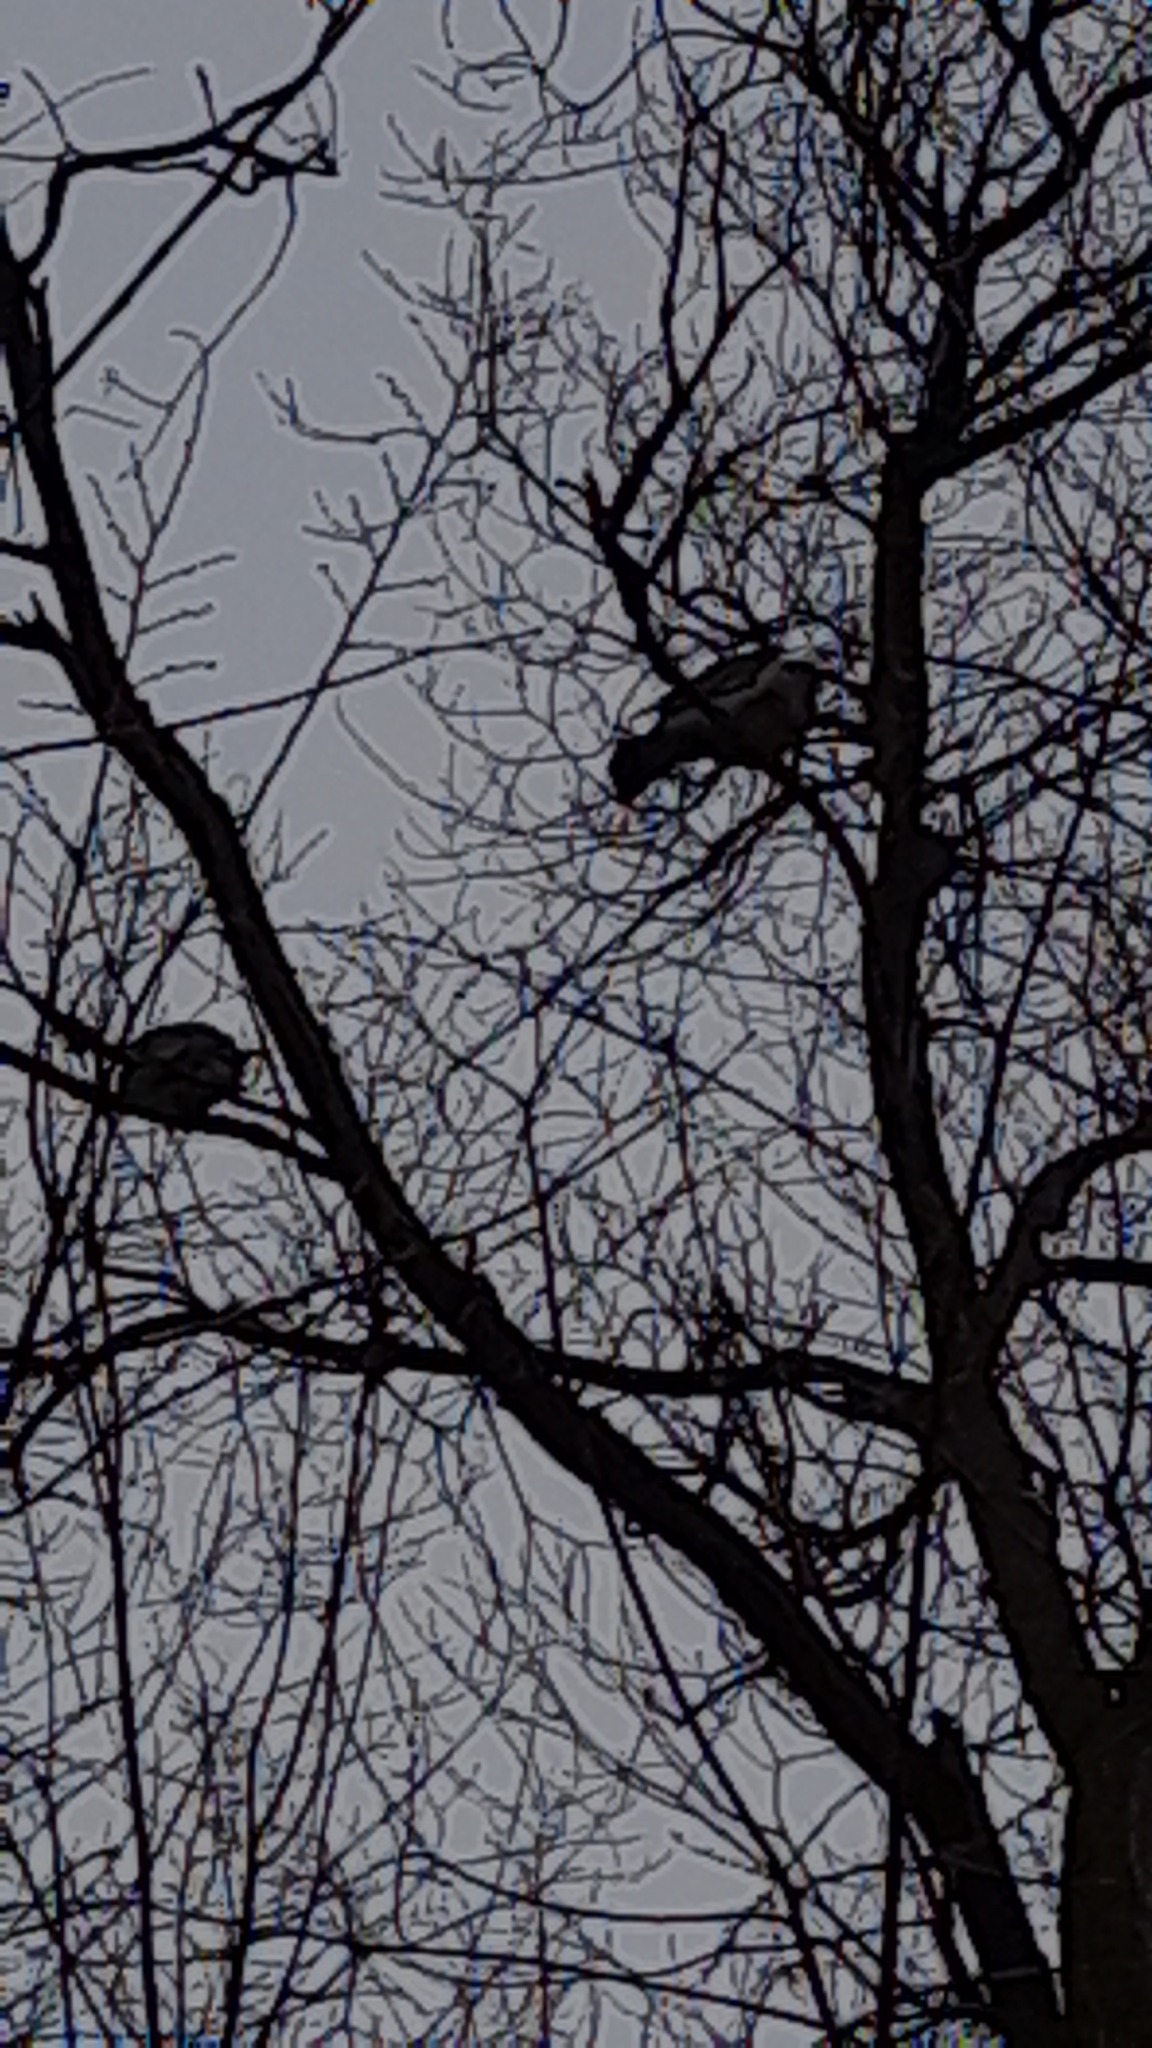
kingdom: Animalia
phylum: Chordata
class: Aves
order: Columbiformes
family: Columbidae
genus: Columba
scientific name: Columba palumbus
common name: Common wood pigeon
